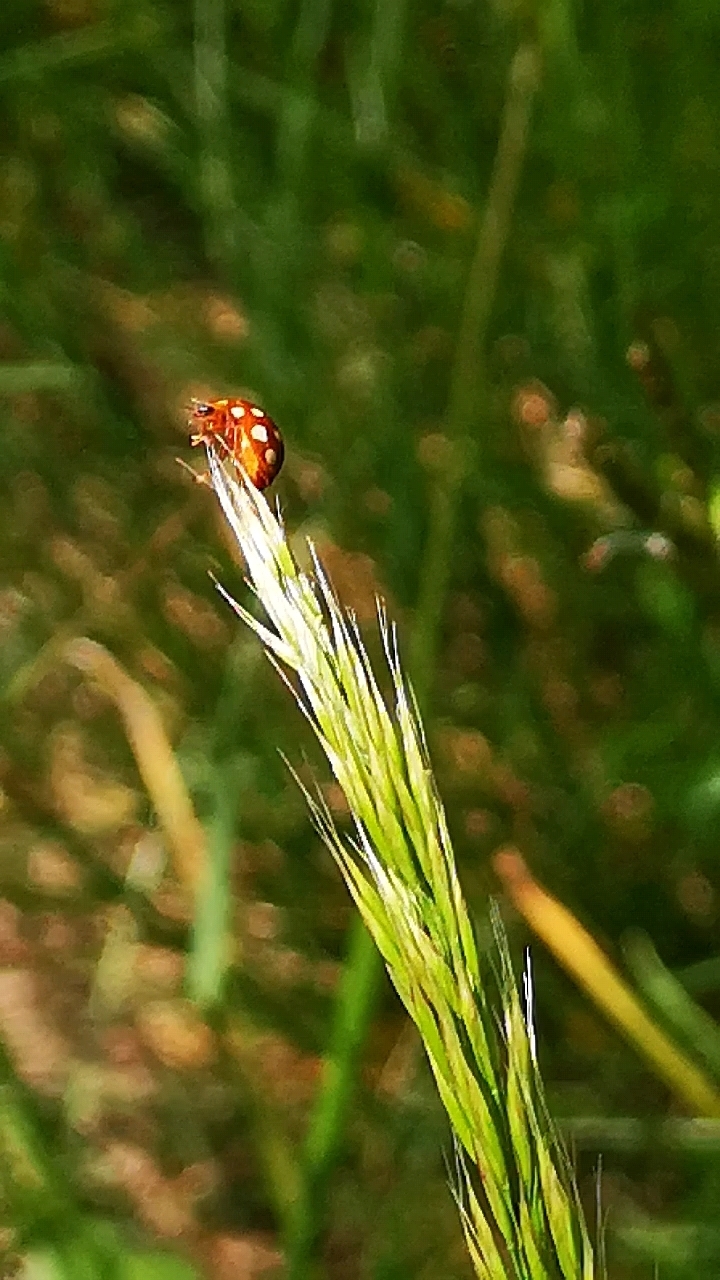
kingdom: Animalia
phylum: Arthropoda
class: Insecta
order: Coleoptera
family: Coccinellidae
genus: Calvia
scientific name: Calvia quatuordecimguttata
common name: Cream-spot ladybird
